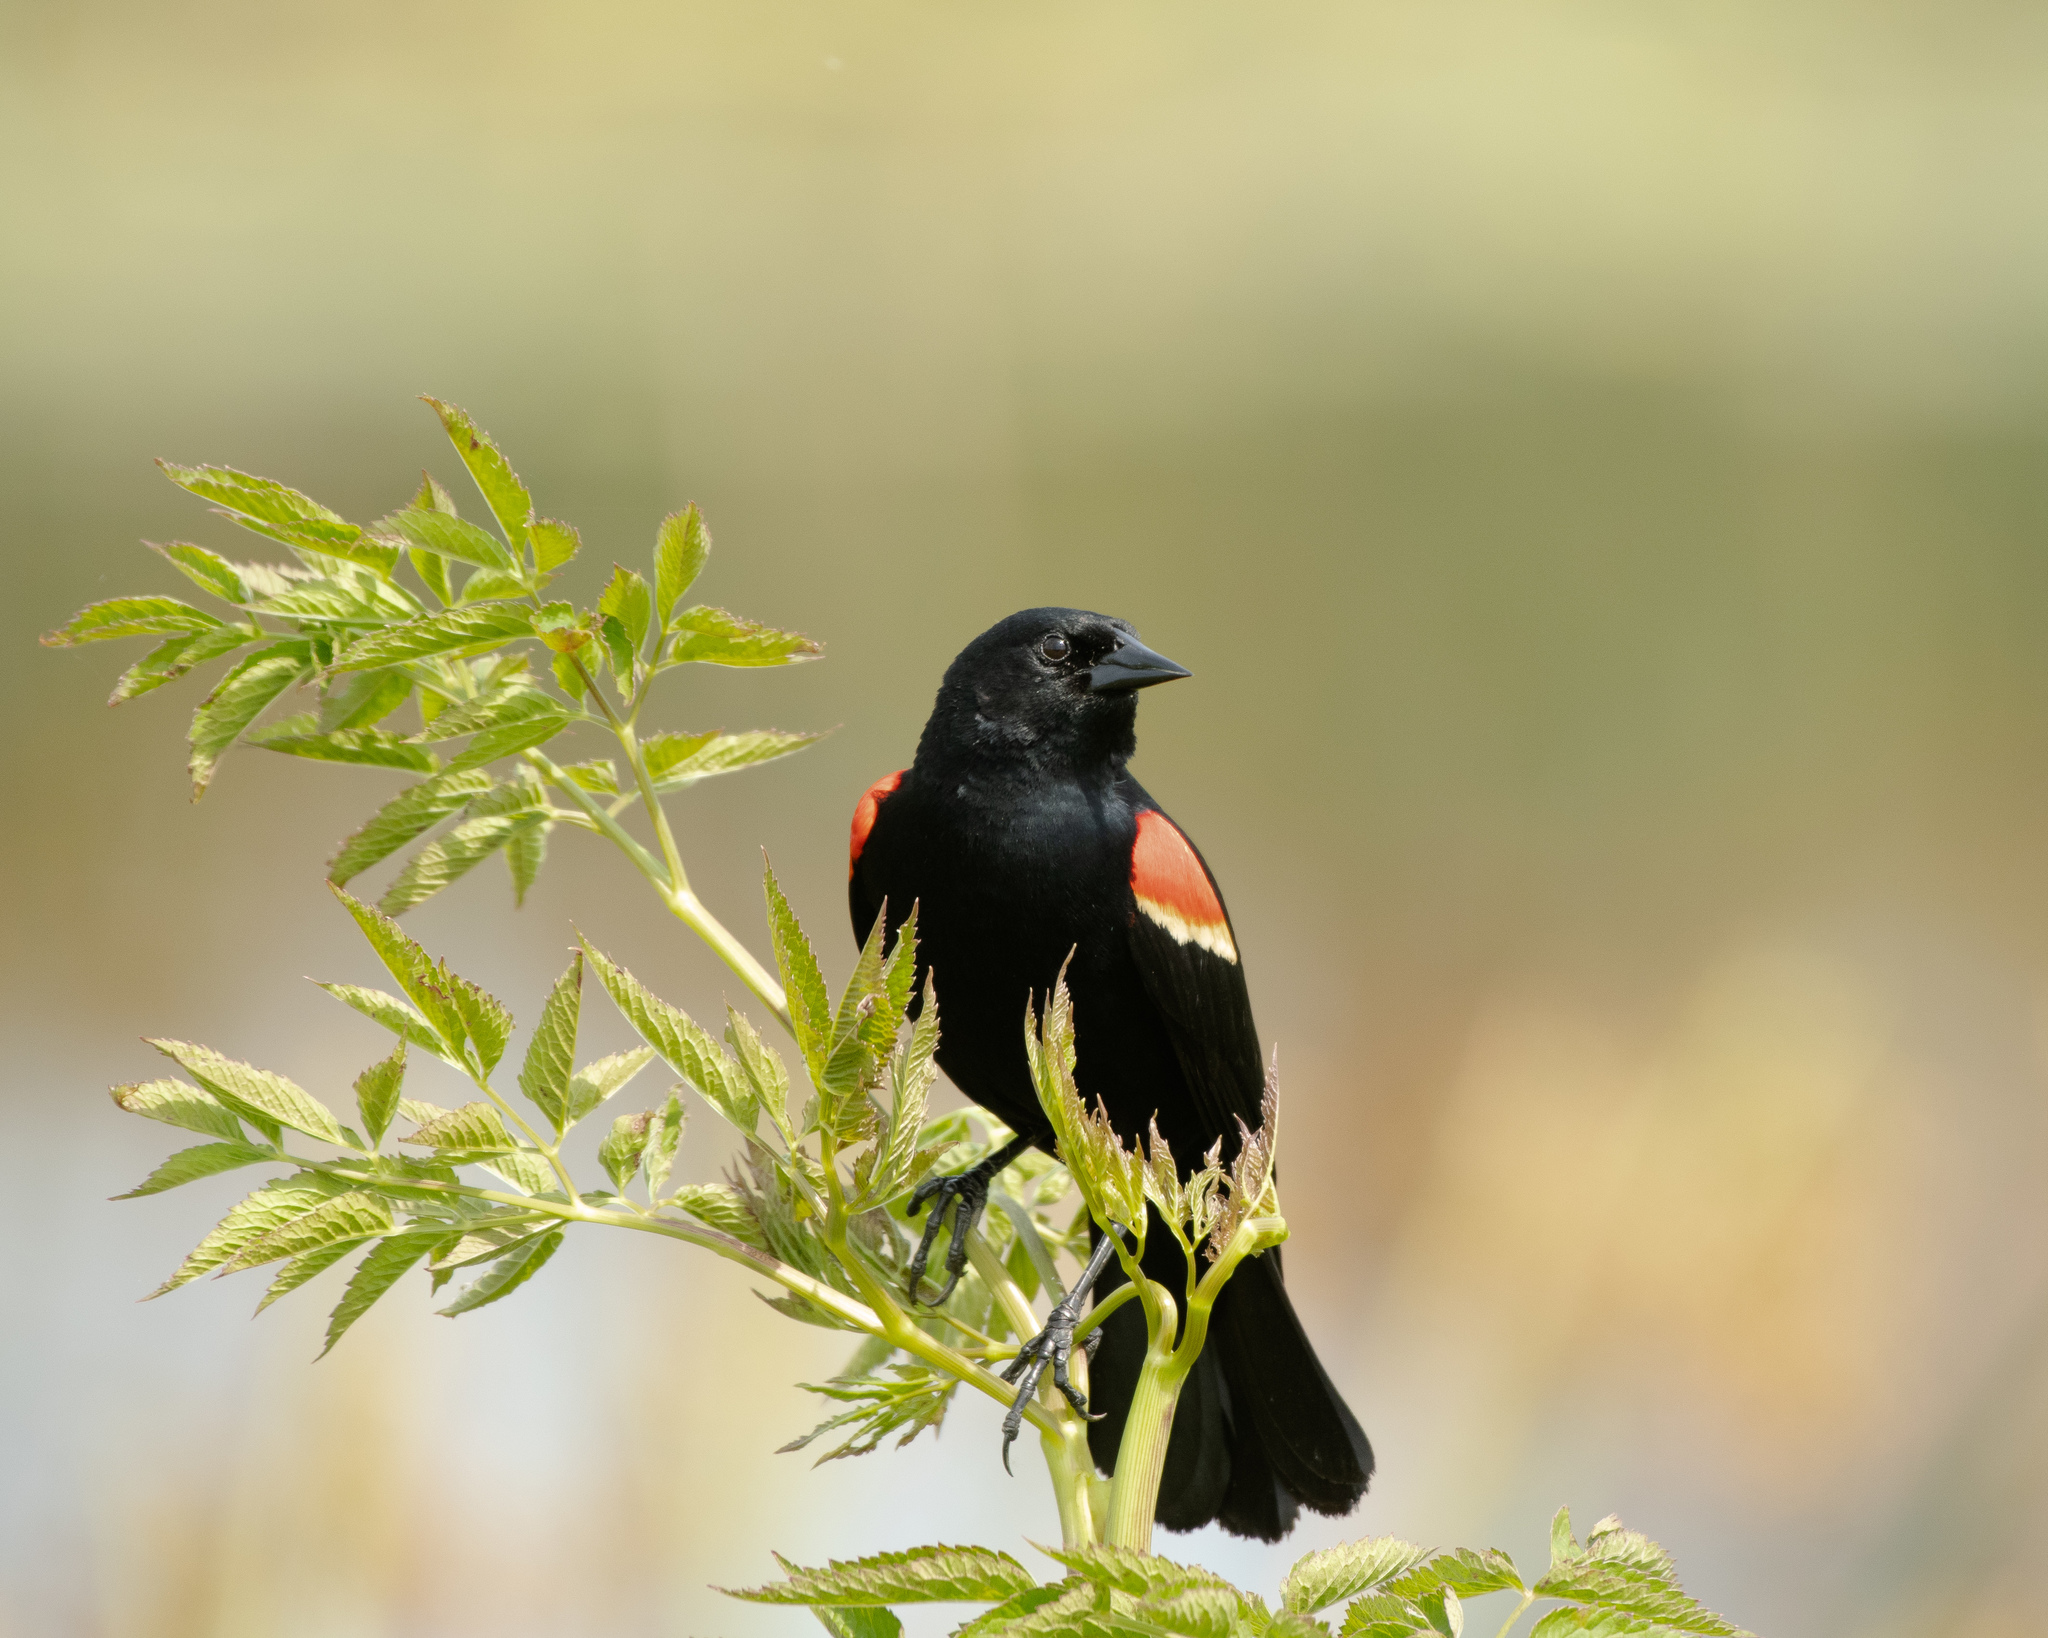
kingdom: Animalia
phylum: Chordata
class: Aves
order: Passeriformes
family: Icteridae
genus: Agelaius
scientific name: Agelaius phoeniceus
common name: Red-winged blackbird
